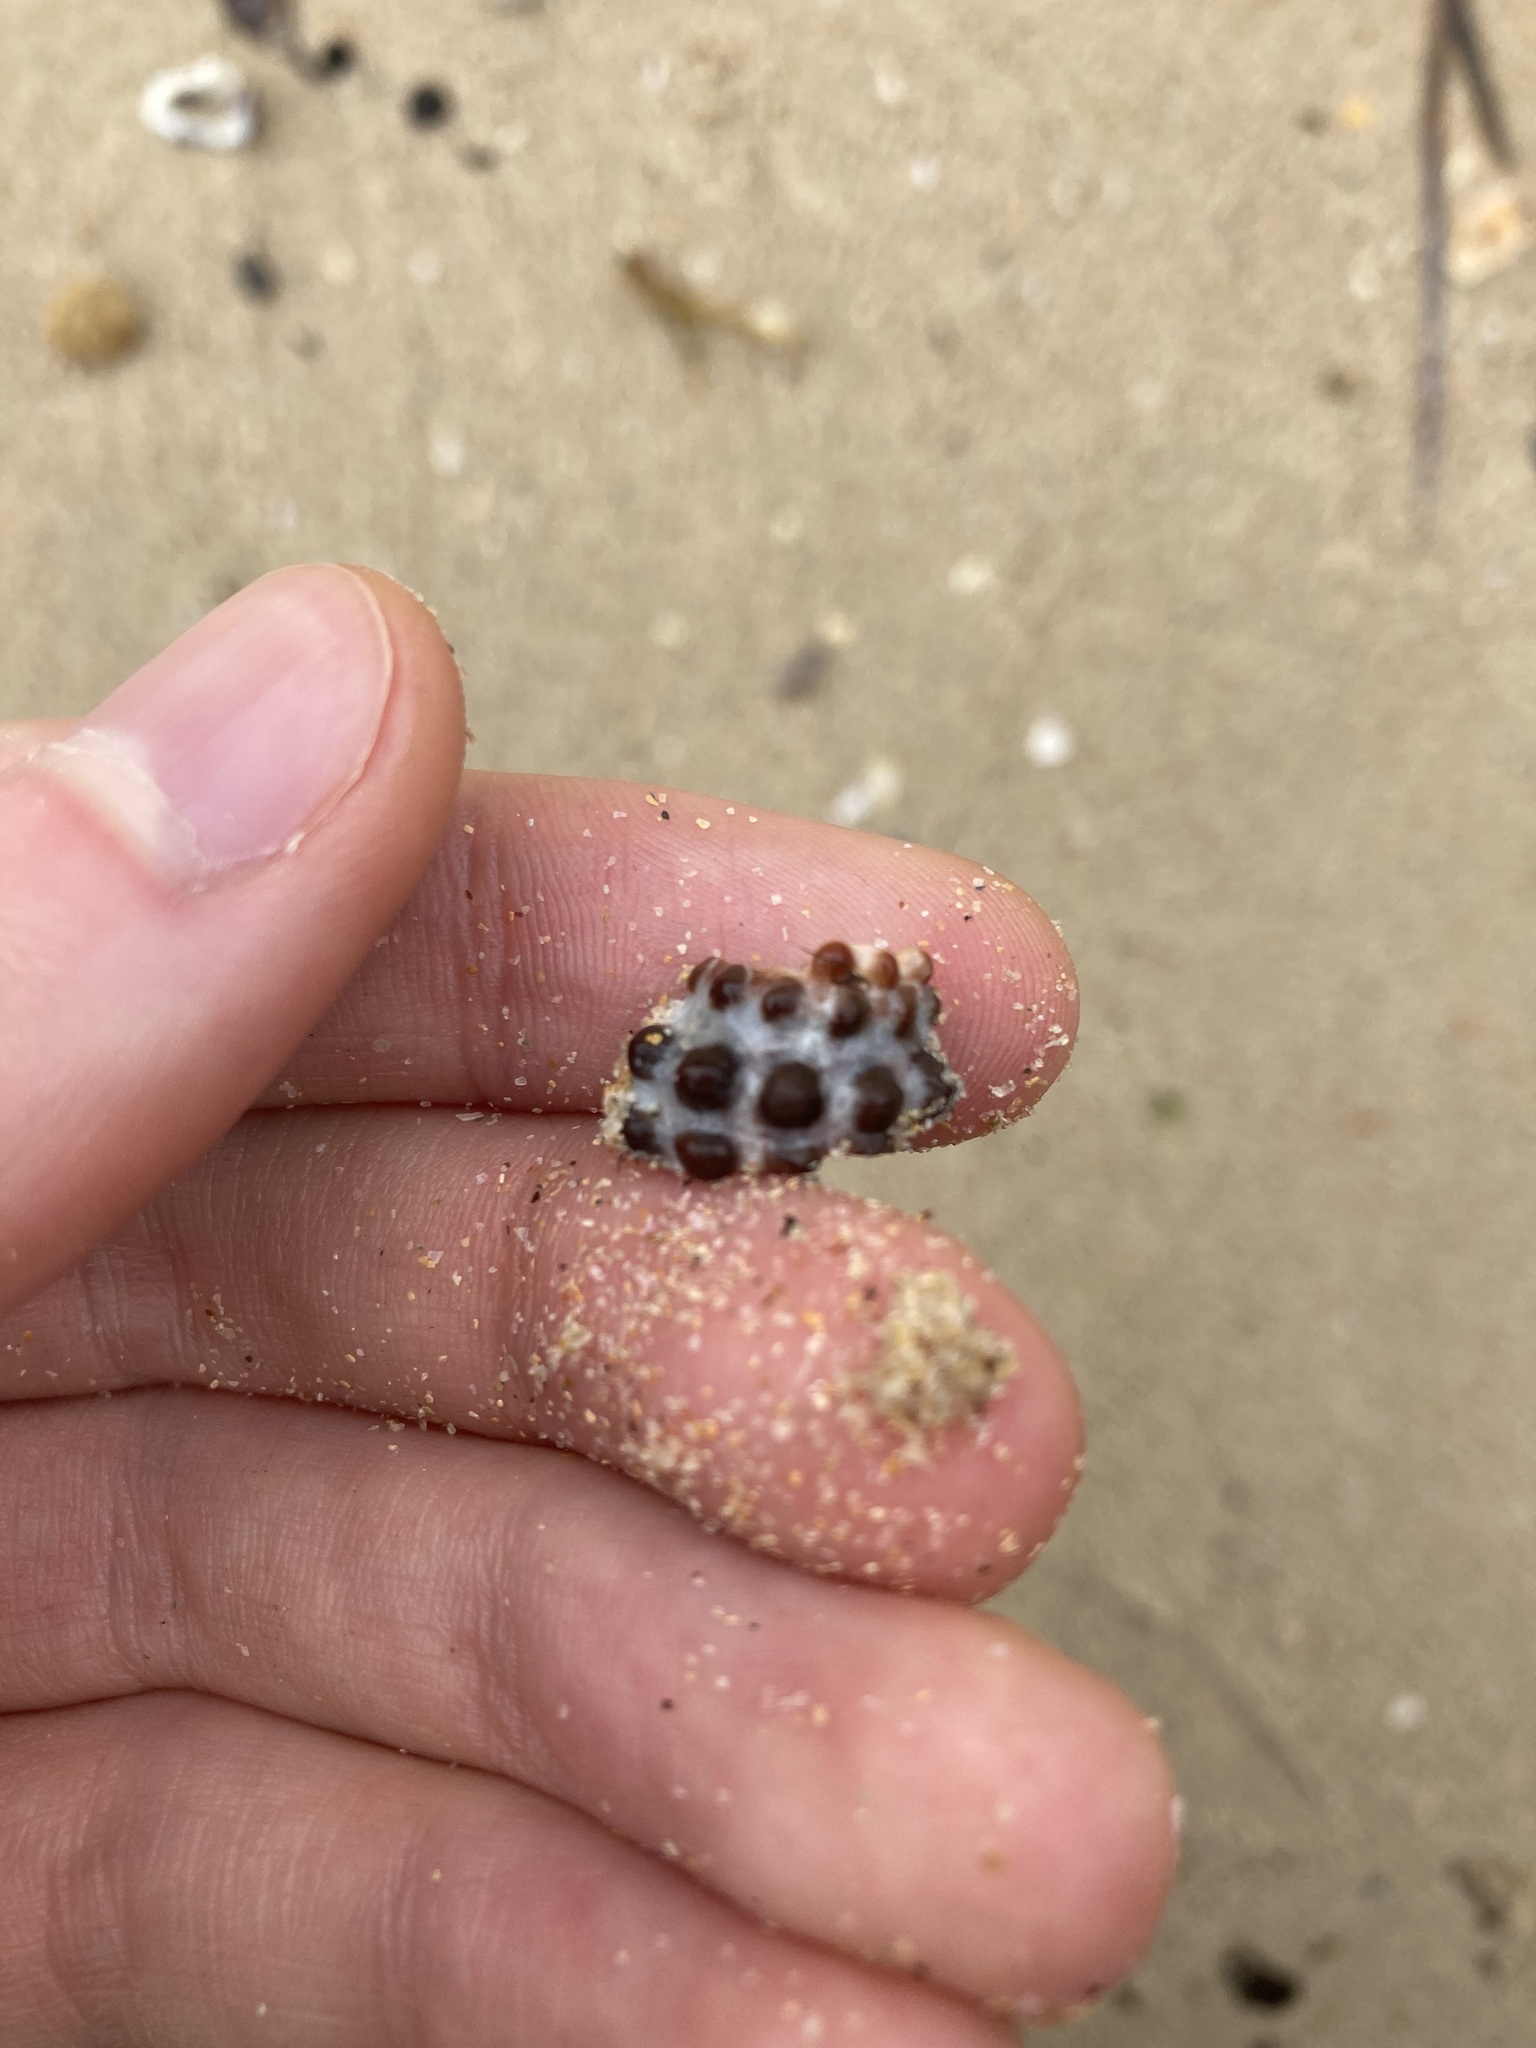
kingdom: Animalia
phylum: Mollusca
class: Gastropoda
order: Neogastropoda
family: Muricidae
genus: Tenguella
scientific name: Tenguella marginalba
